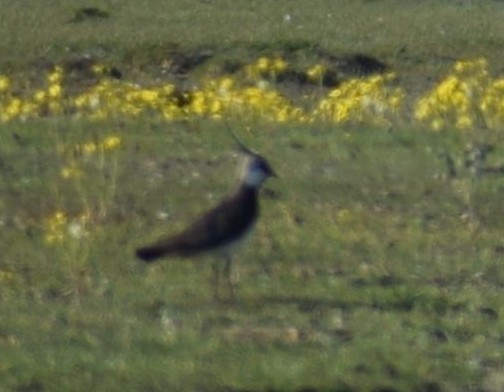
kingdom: Animalia
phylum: Chordata
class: Aves
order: Charadriiformes
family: Charadriidae
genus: Vanellus
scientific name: Vanellus vanellus
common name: Northern lapwing
